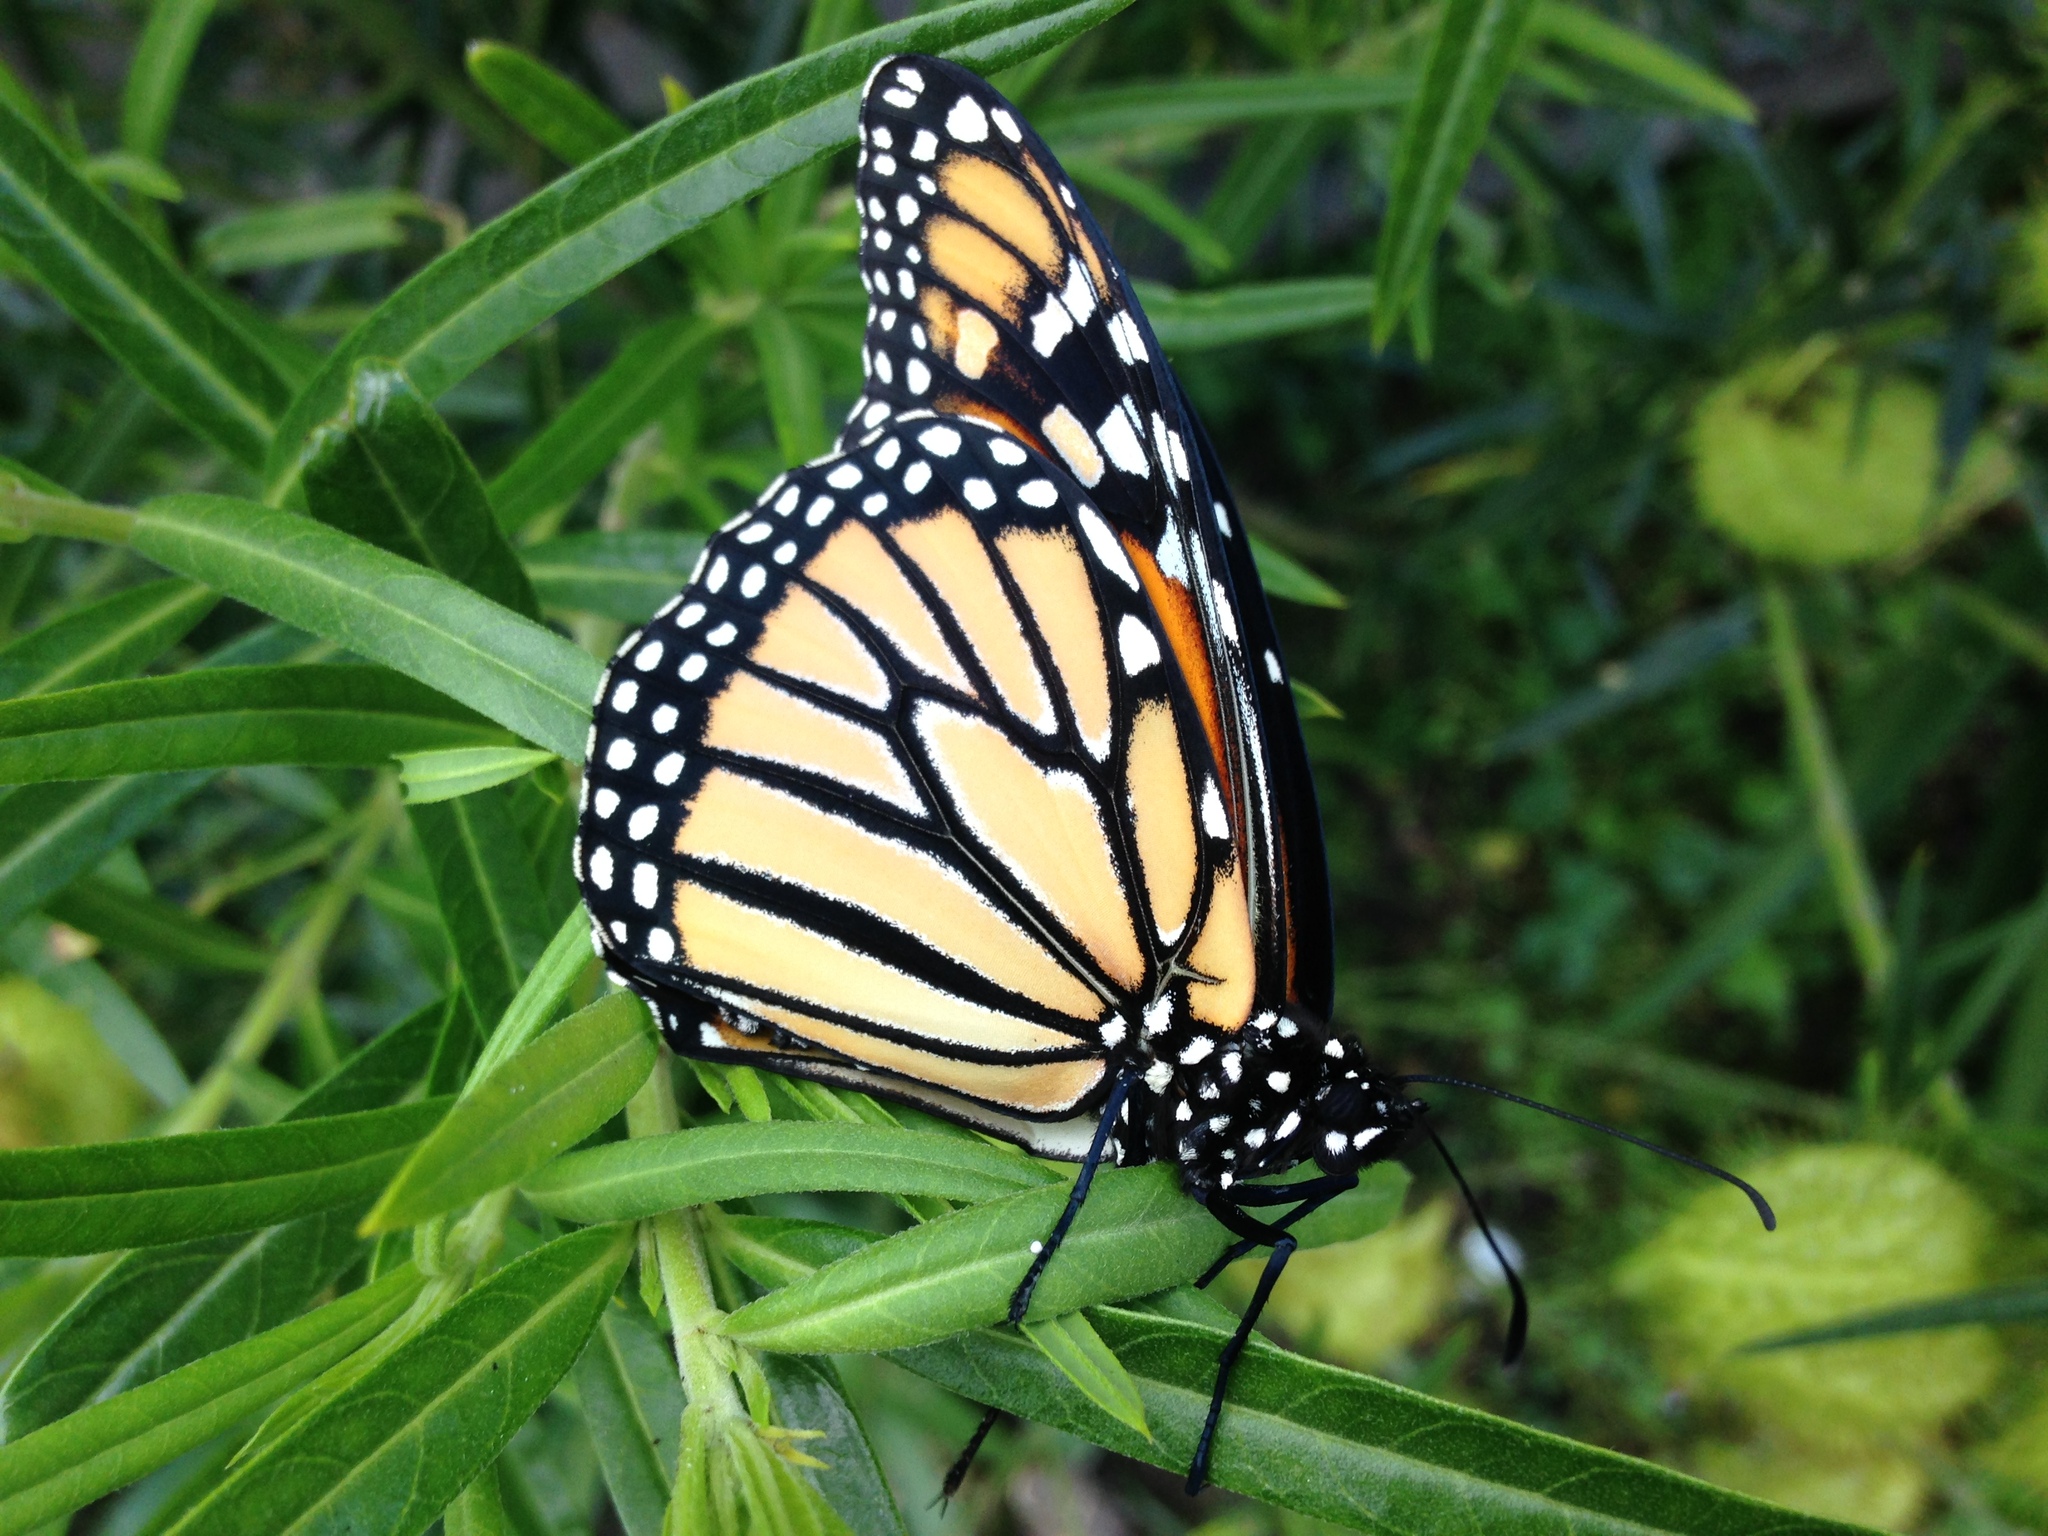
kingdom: Animalia
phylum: Arthropoda
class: Insecta
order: Lepidoptera
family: Nymphalidae
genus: Danaus
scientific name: Danaus plexippus
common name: Monarch
